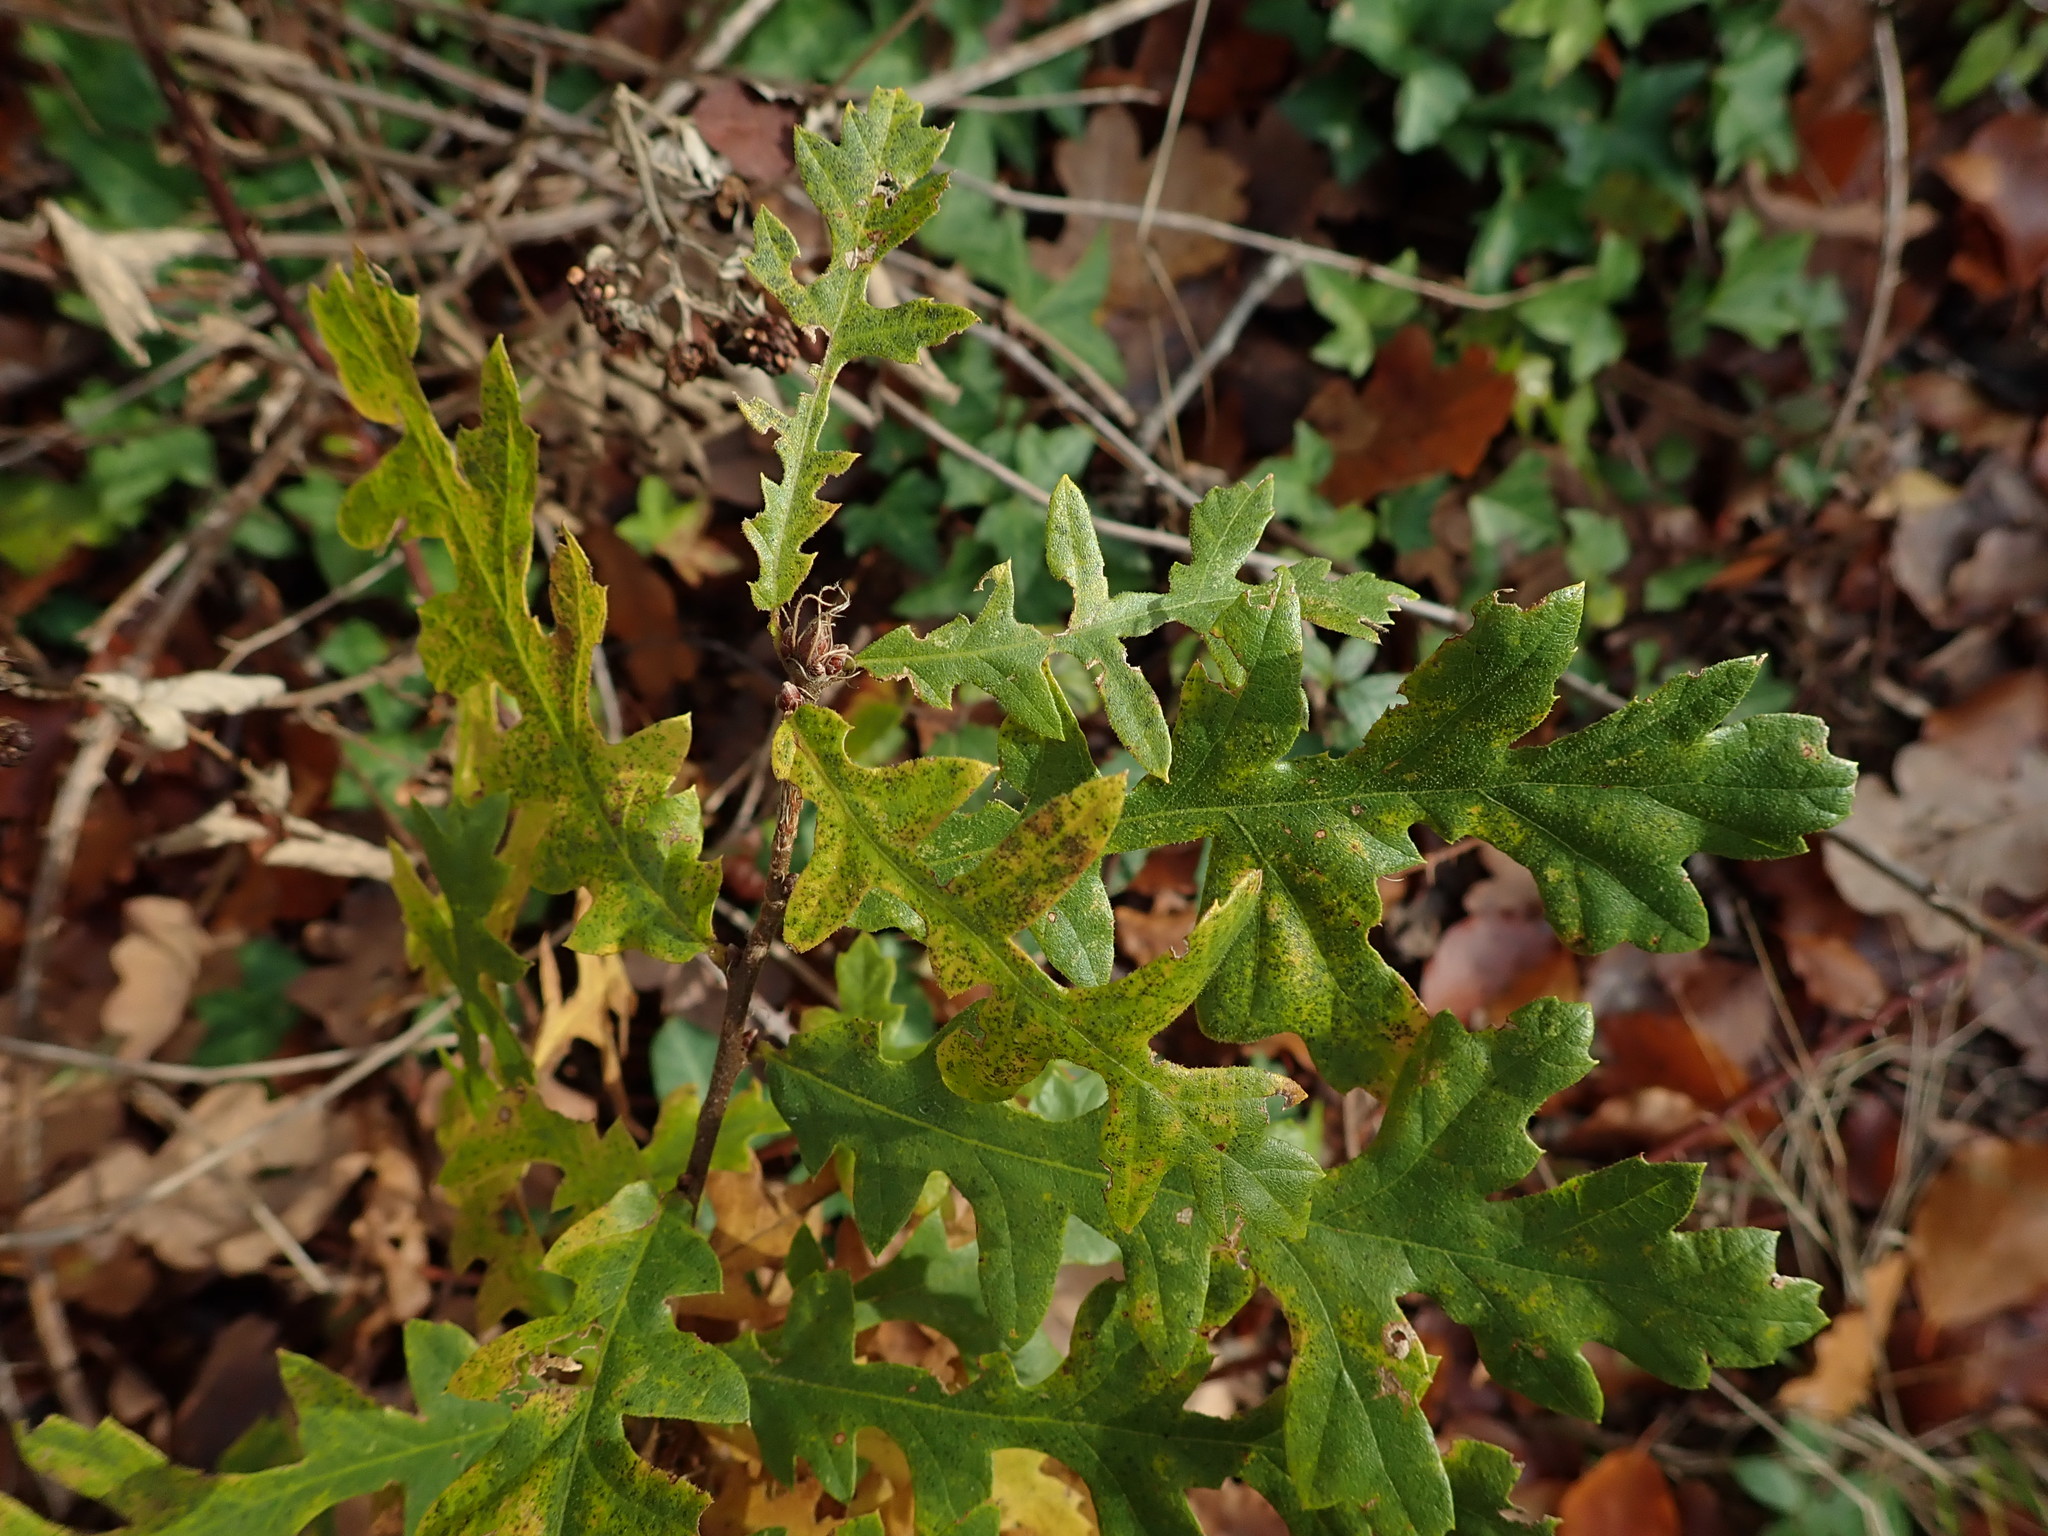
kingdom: Plantae
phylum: Tracheophyta
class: Magnoliopsida
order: Fagales
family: Fagaceae
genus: Quercus
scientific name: Quercus cerris
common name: Turkey oak
